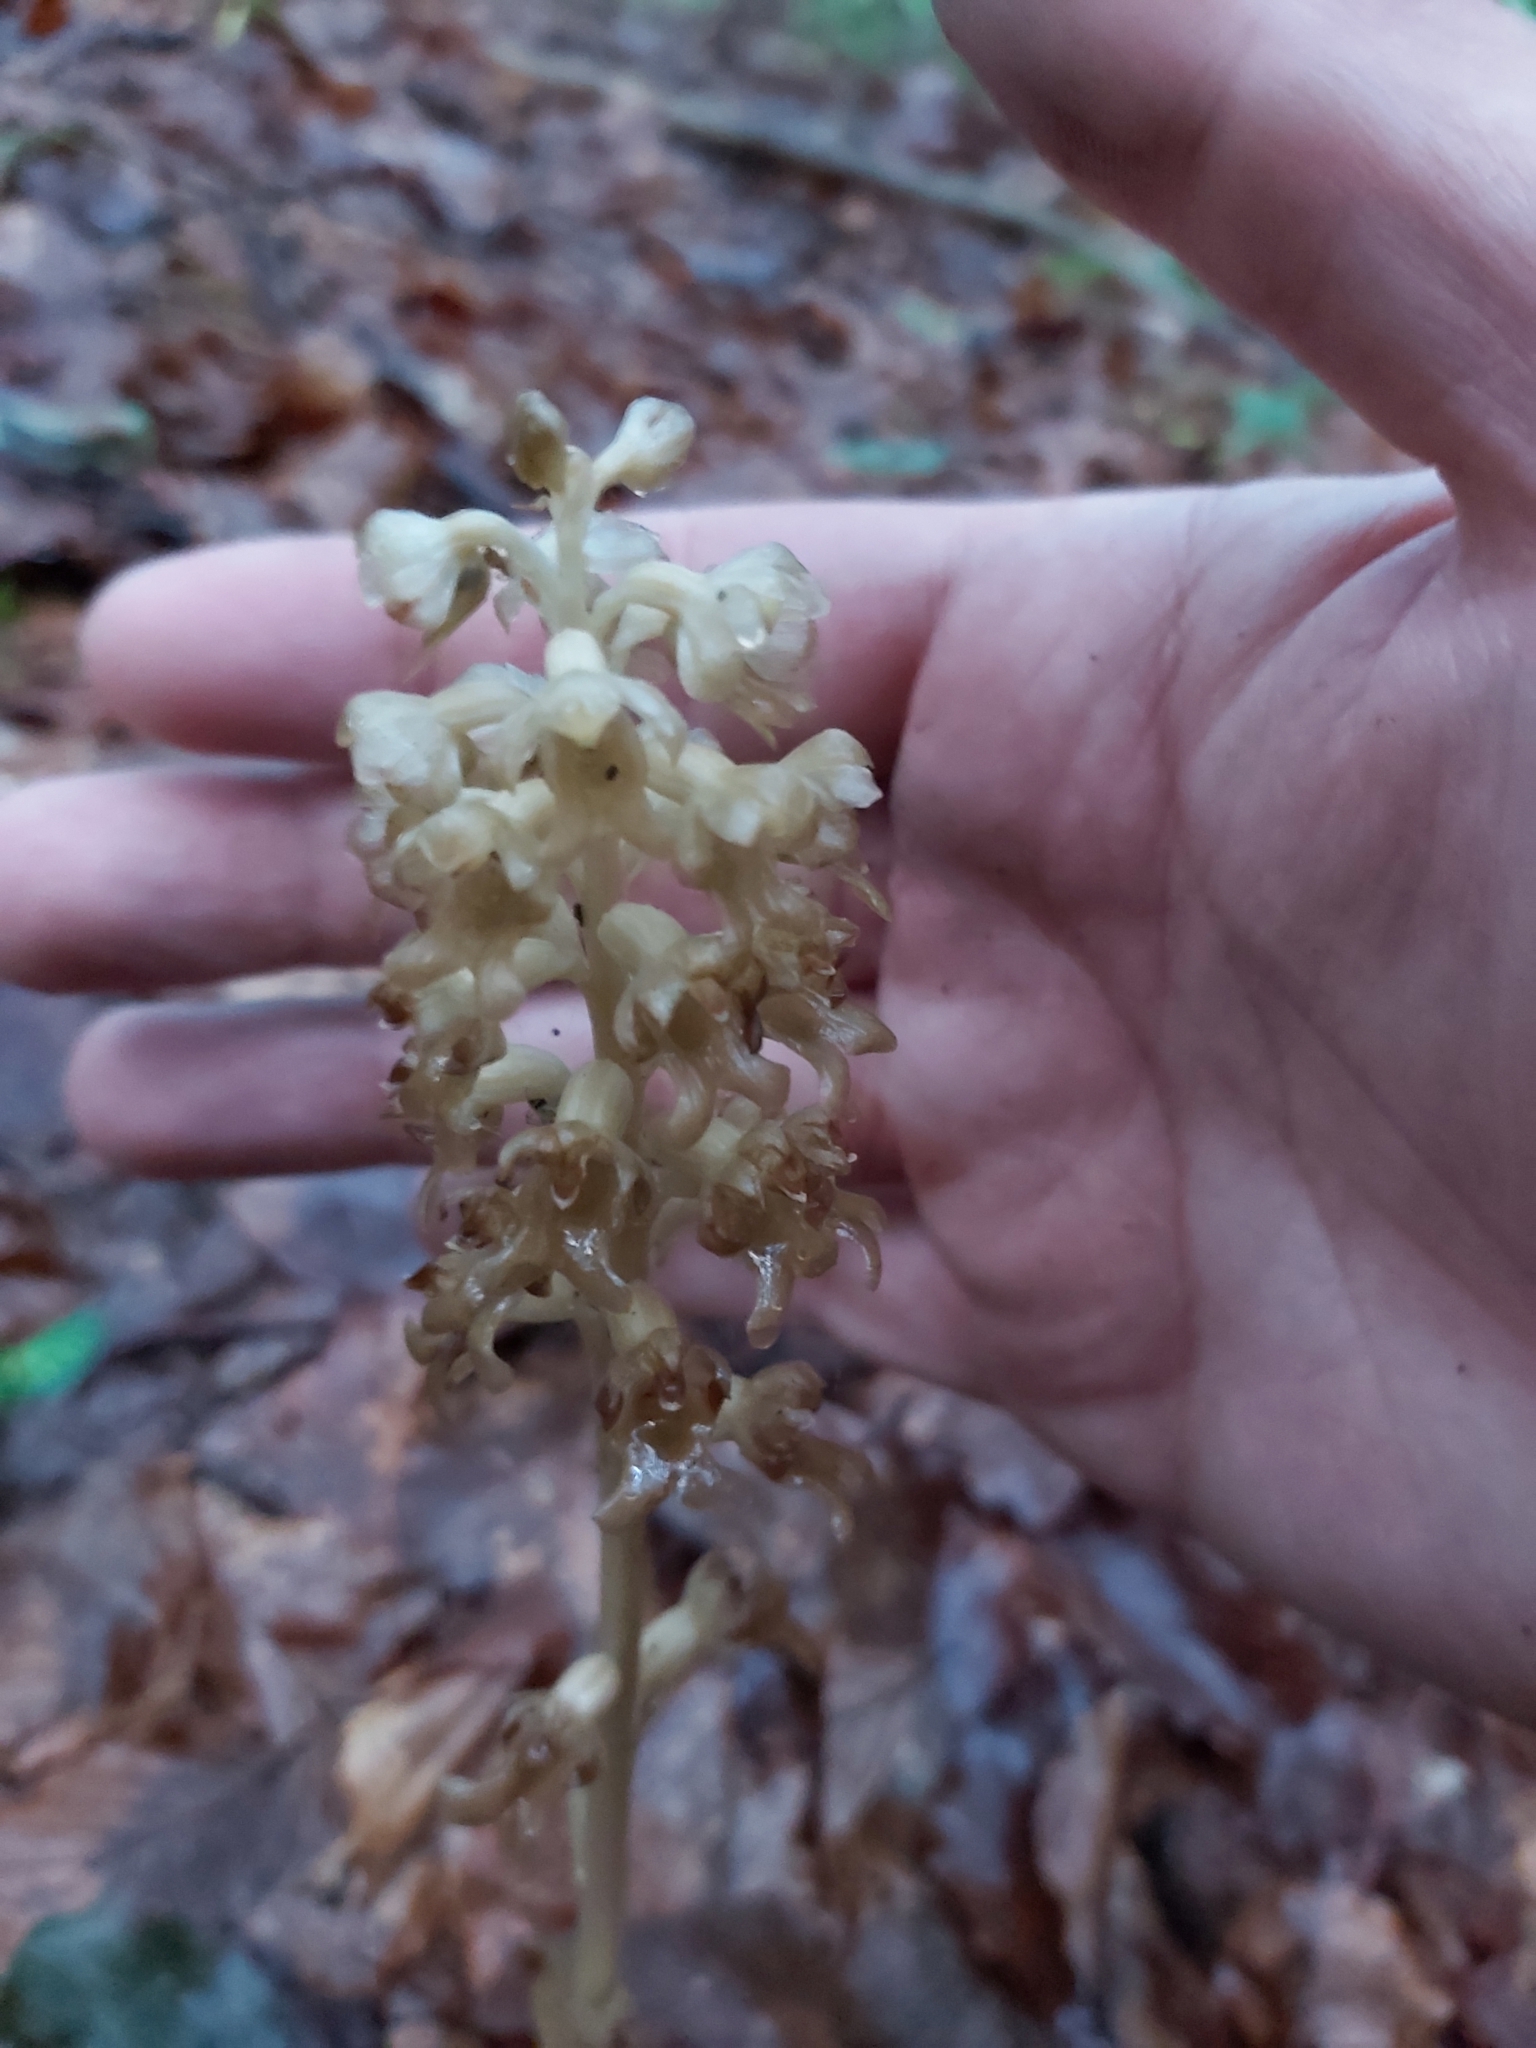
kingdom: Plantae
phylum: Tracheophyta
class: Liliopsida
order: Asparagales
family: Orchidaceae
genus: Neottia
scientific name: Neottia nidus-avis
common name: Bird's-nest orchid
